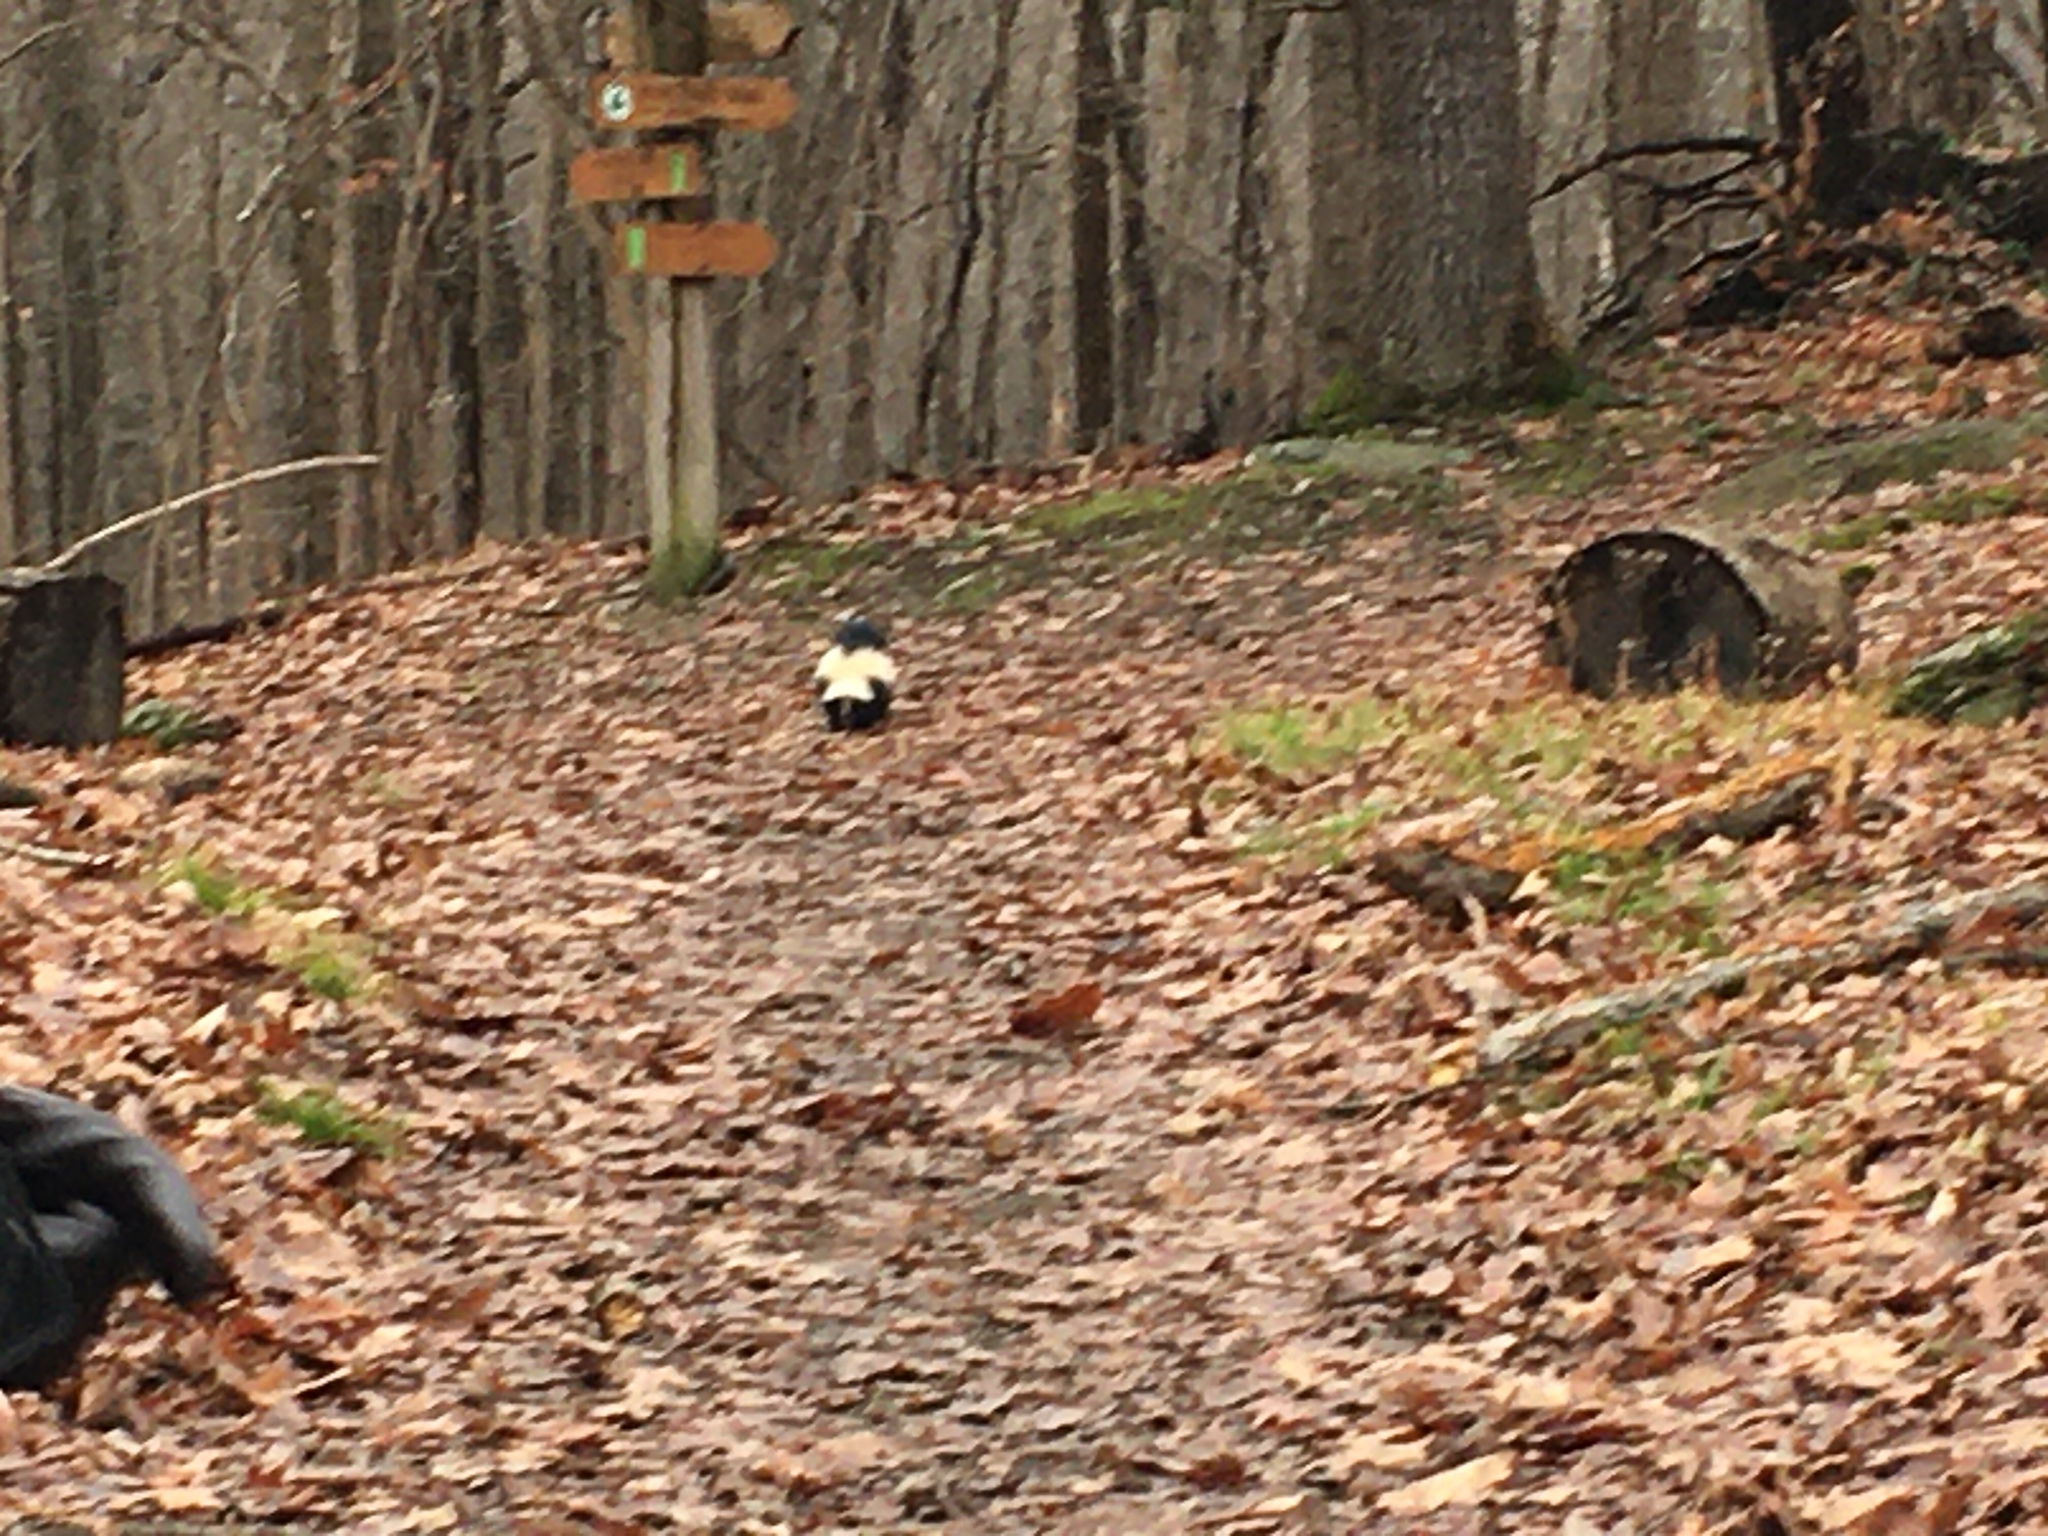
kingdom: Animalia
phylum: Chordata
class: Mammalia
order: Carnivora
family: Mephitidae
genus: Mephitis
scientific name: Mephitis mephitis
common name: Striped skunk
